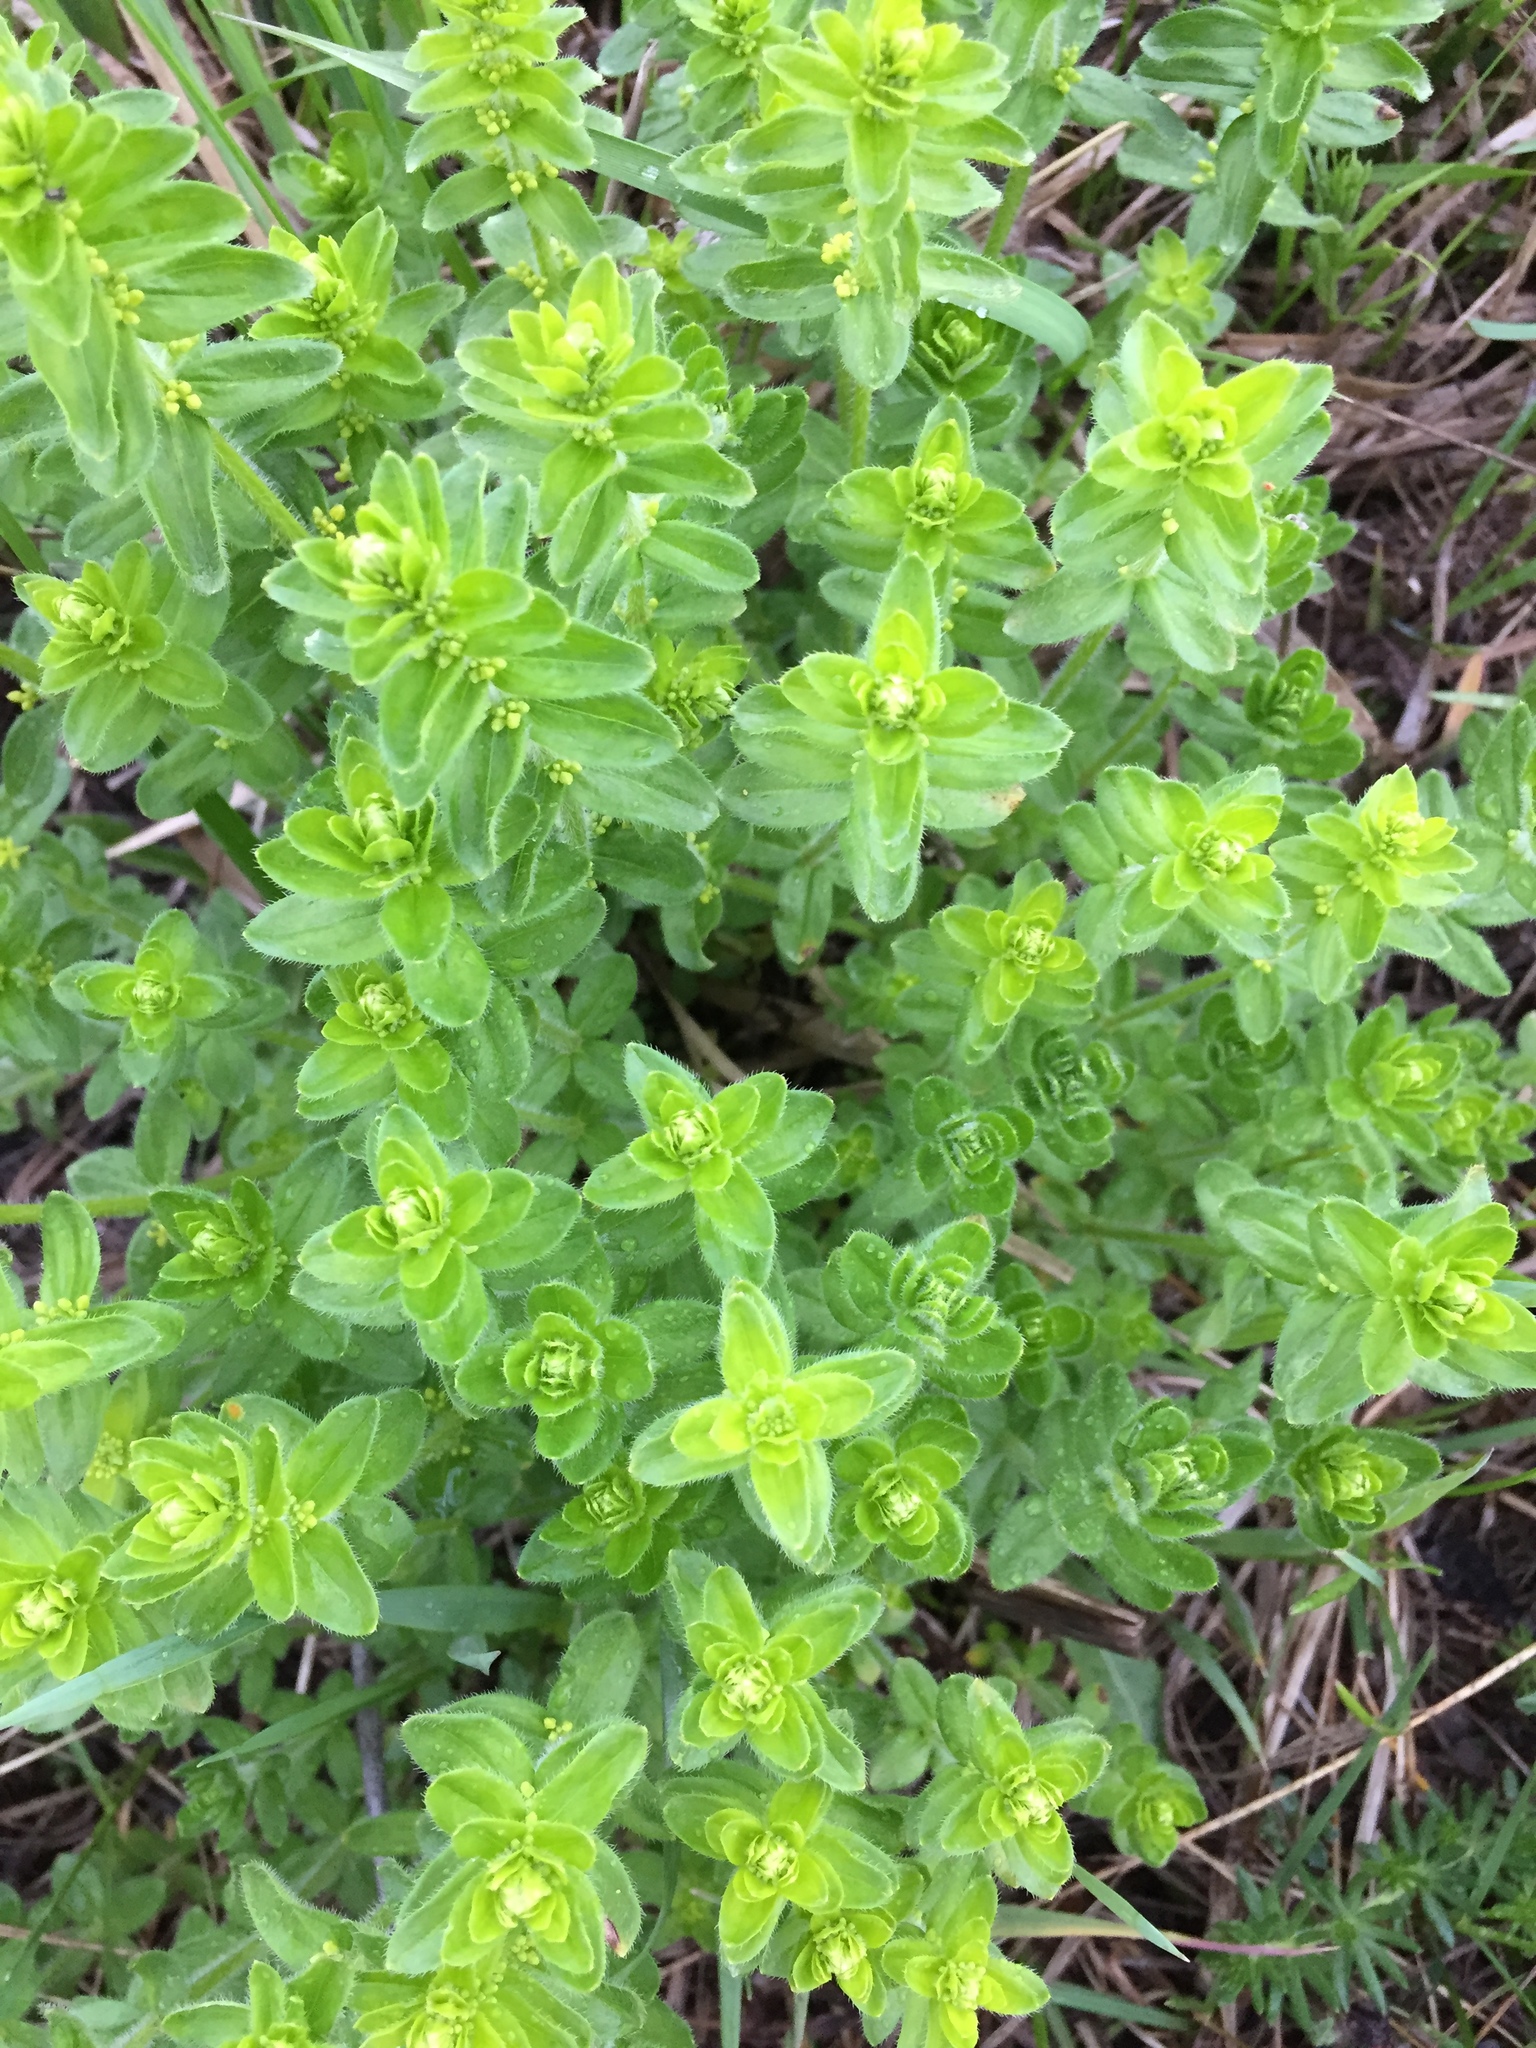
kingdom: Plantae
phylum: Tracheophyta
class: Magnoliopsida
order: Gentianales
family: Rubiaceae
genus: Cruciata
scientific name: Cruciata laevipes
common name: Crosswort
